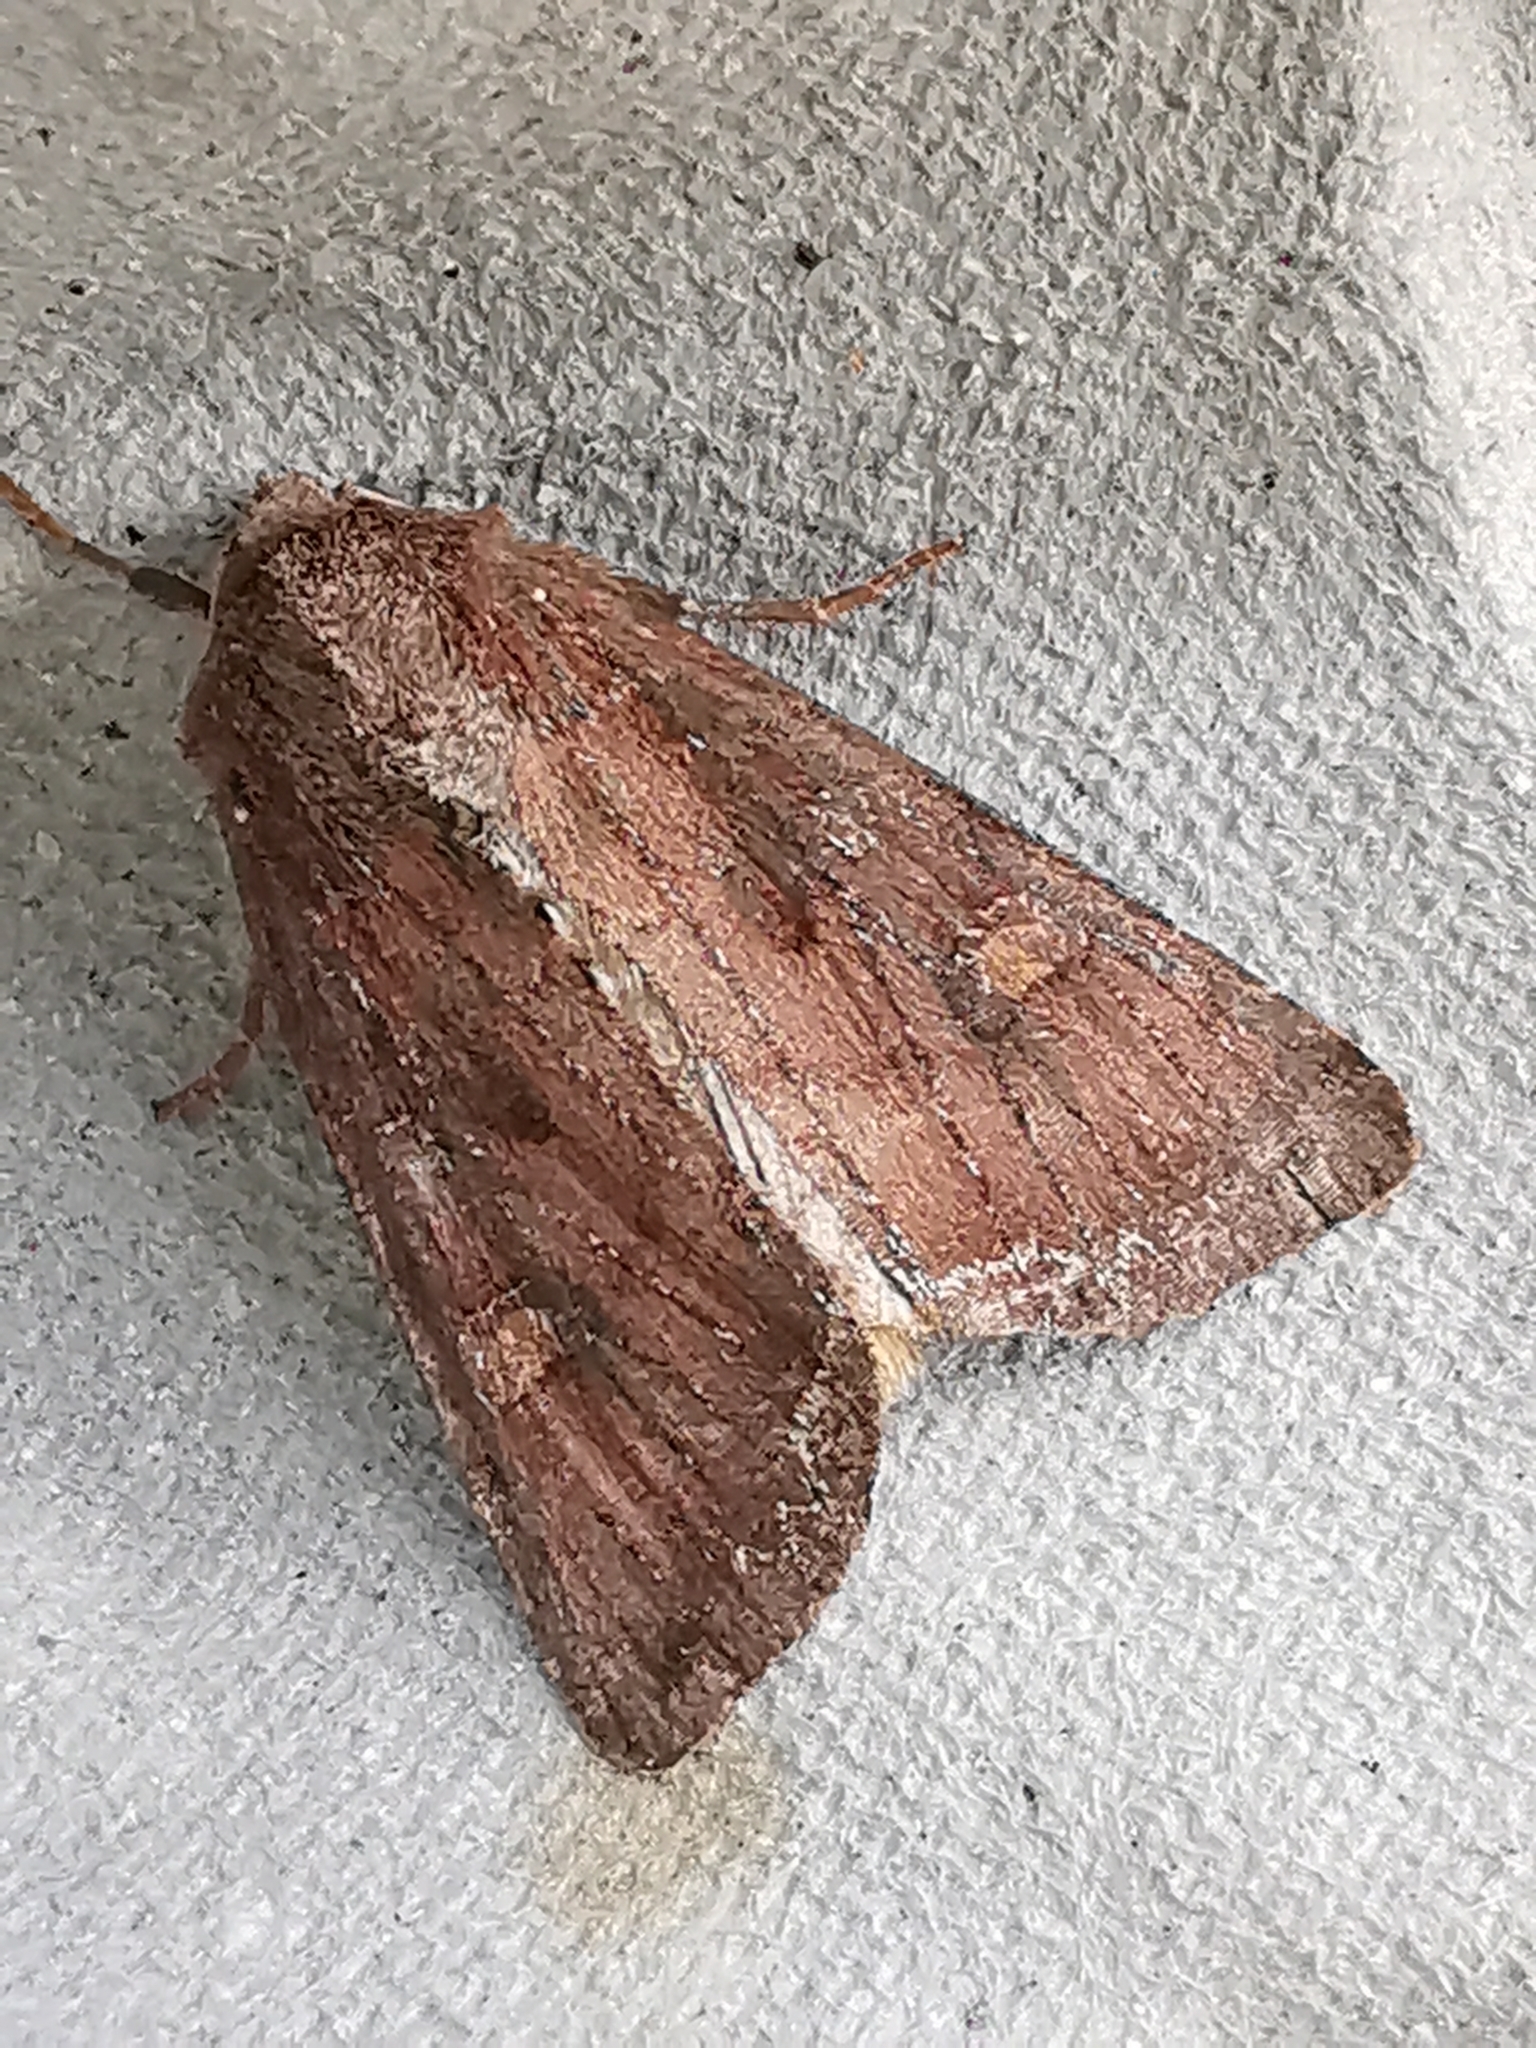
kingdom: Animalia
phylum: Arthropoda
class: Insecta
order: Lepidoptera
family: Noctuidae
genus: Lacanobia
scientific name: Lacanobia oleracea
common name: Bright-line brown-eye
